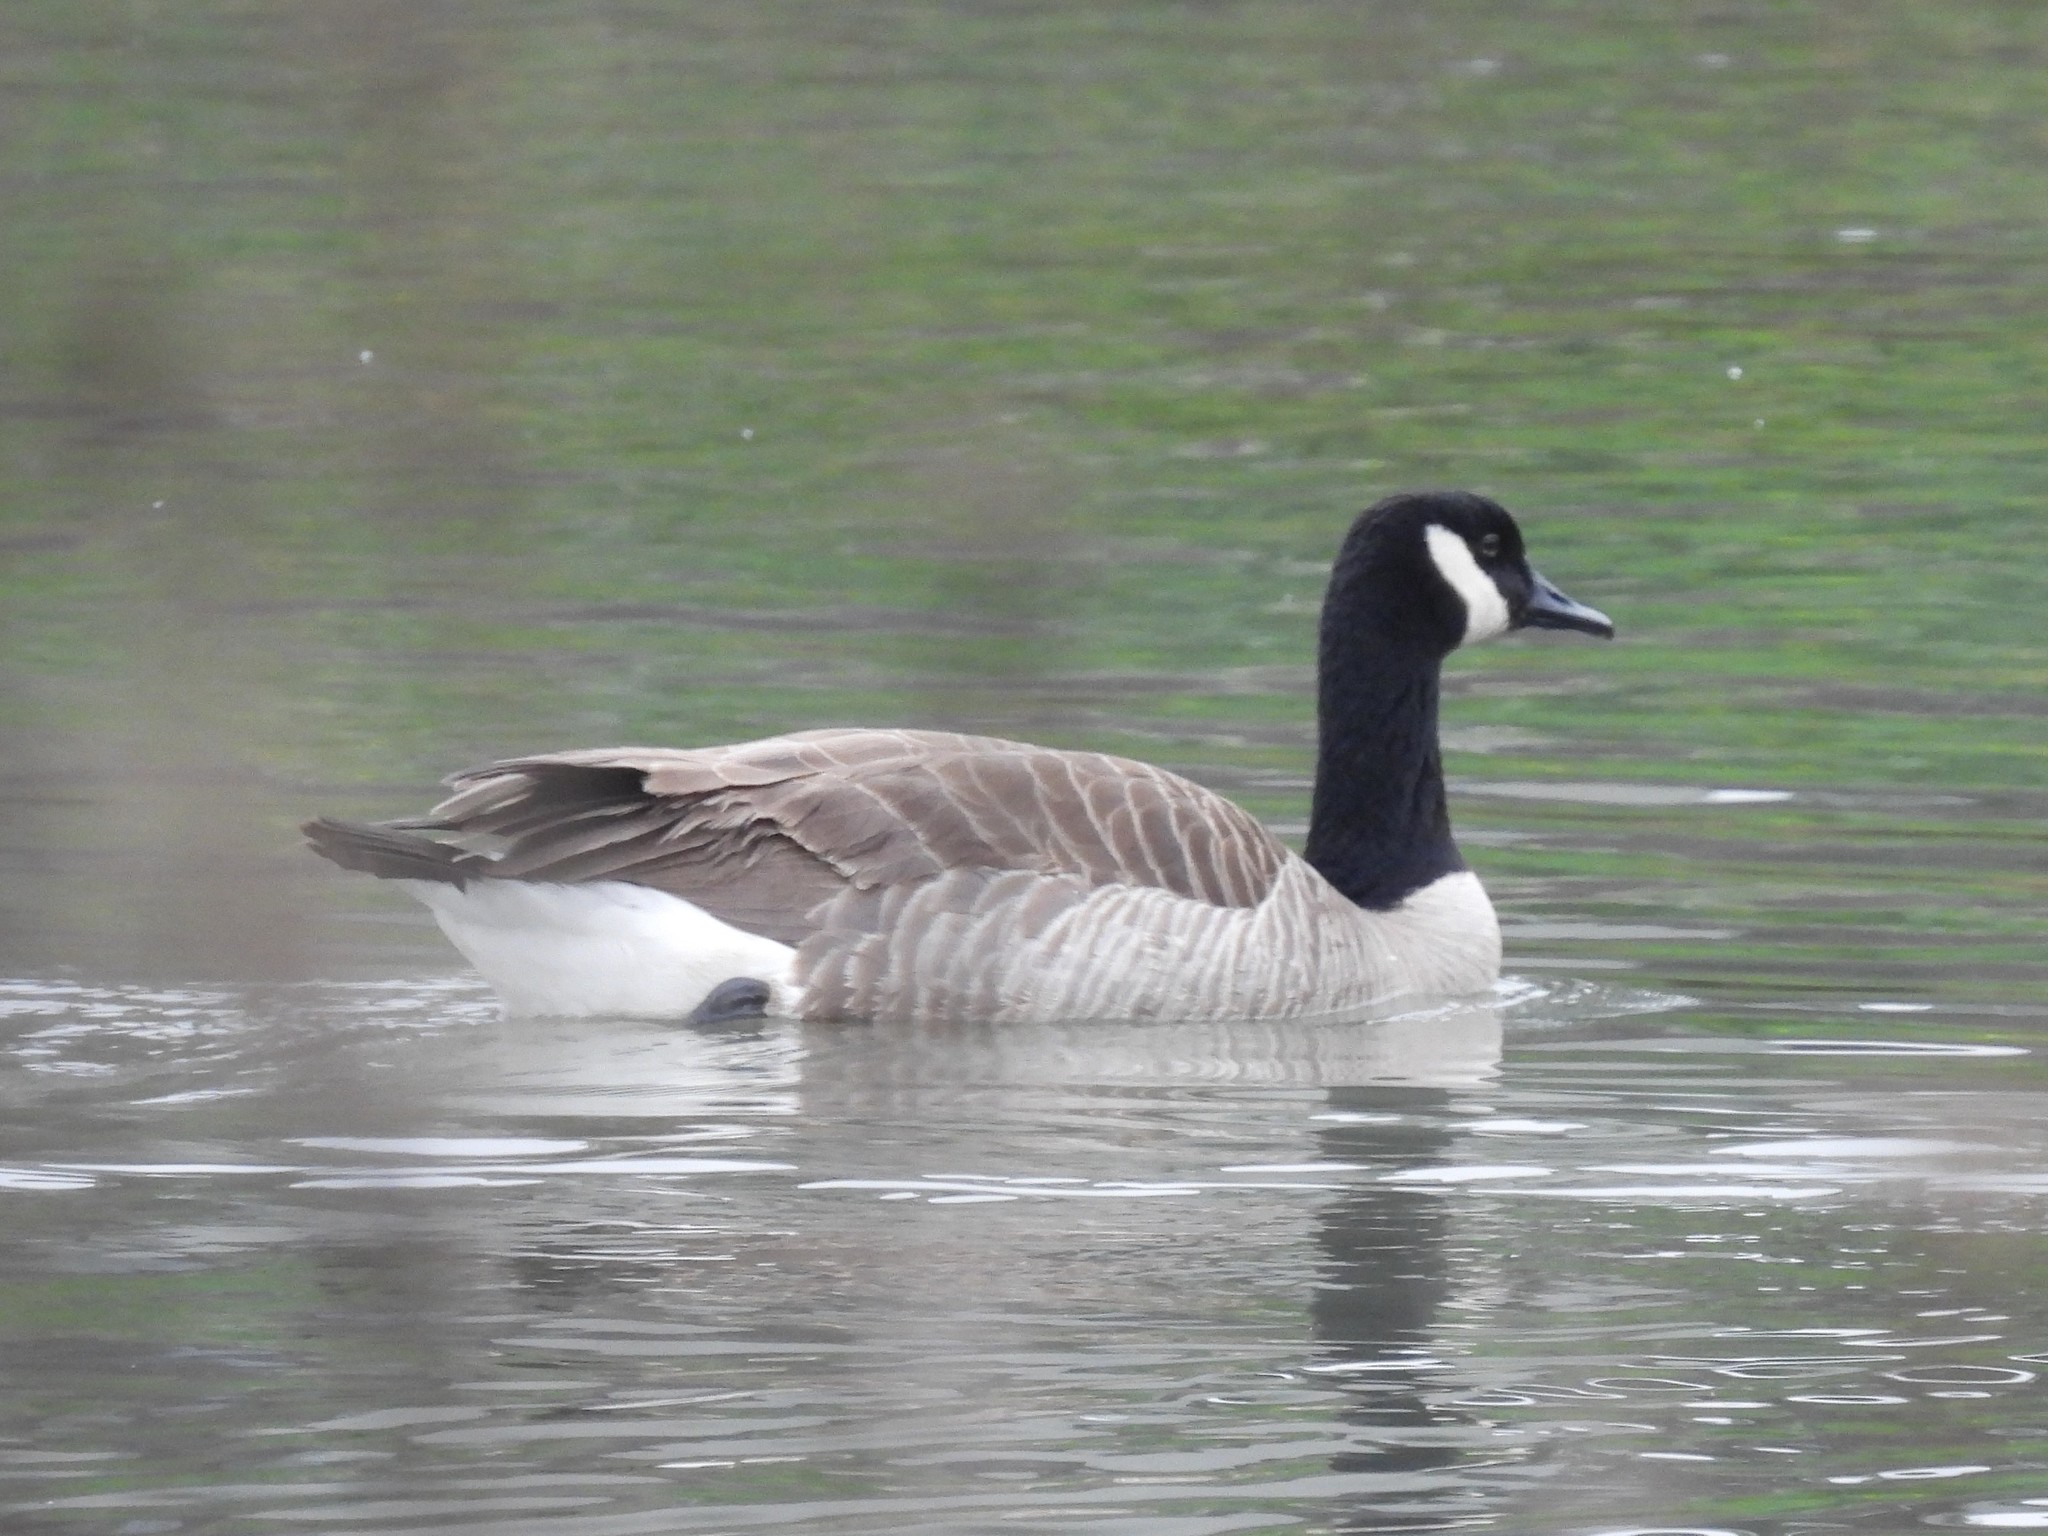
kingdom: Animalia
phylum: Chordata
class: Aves
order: Anseriformes
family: Anatidae
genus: Branta
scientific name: Branta canadensis
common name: Canada goose
